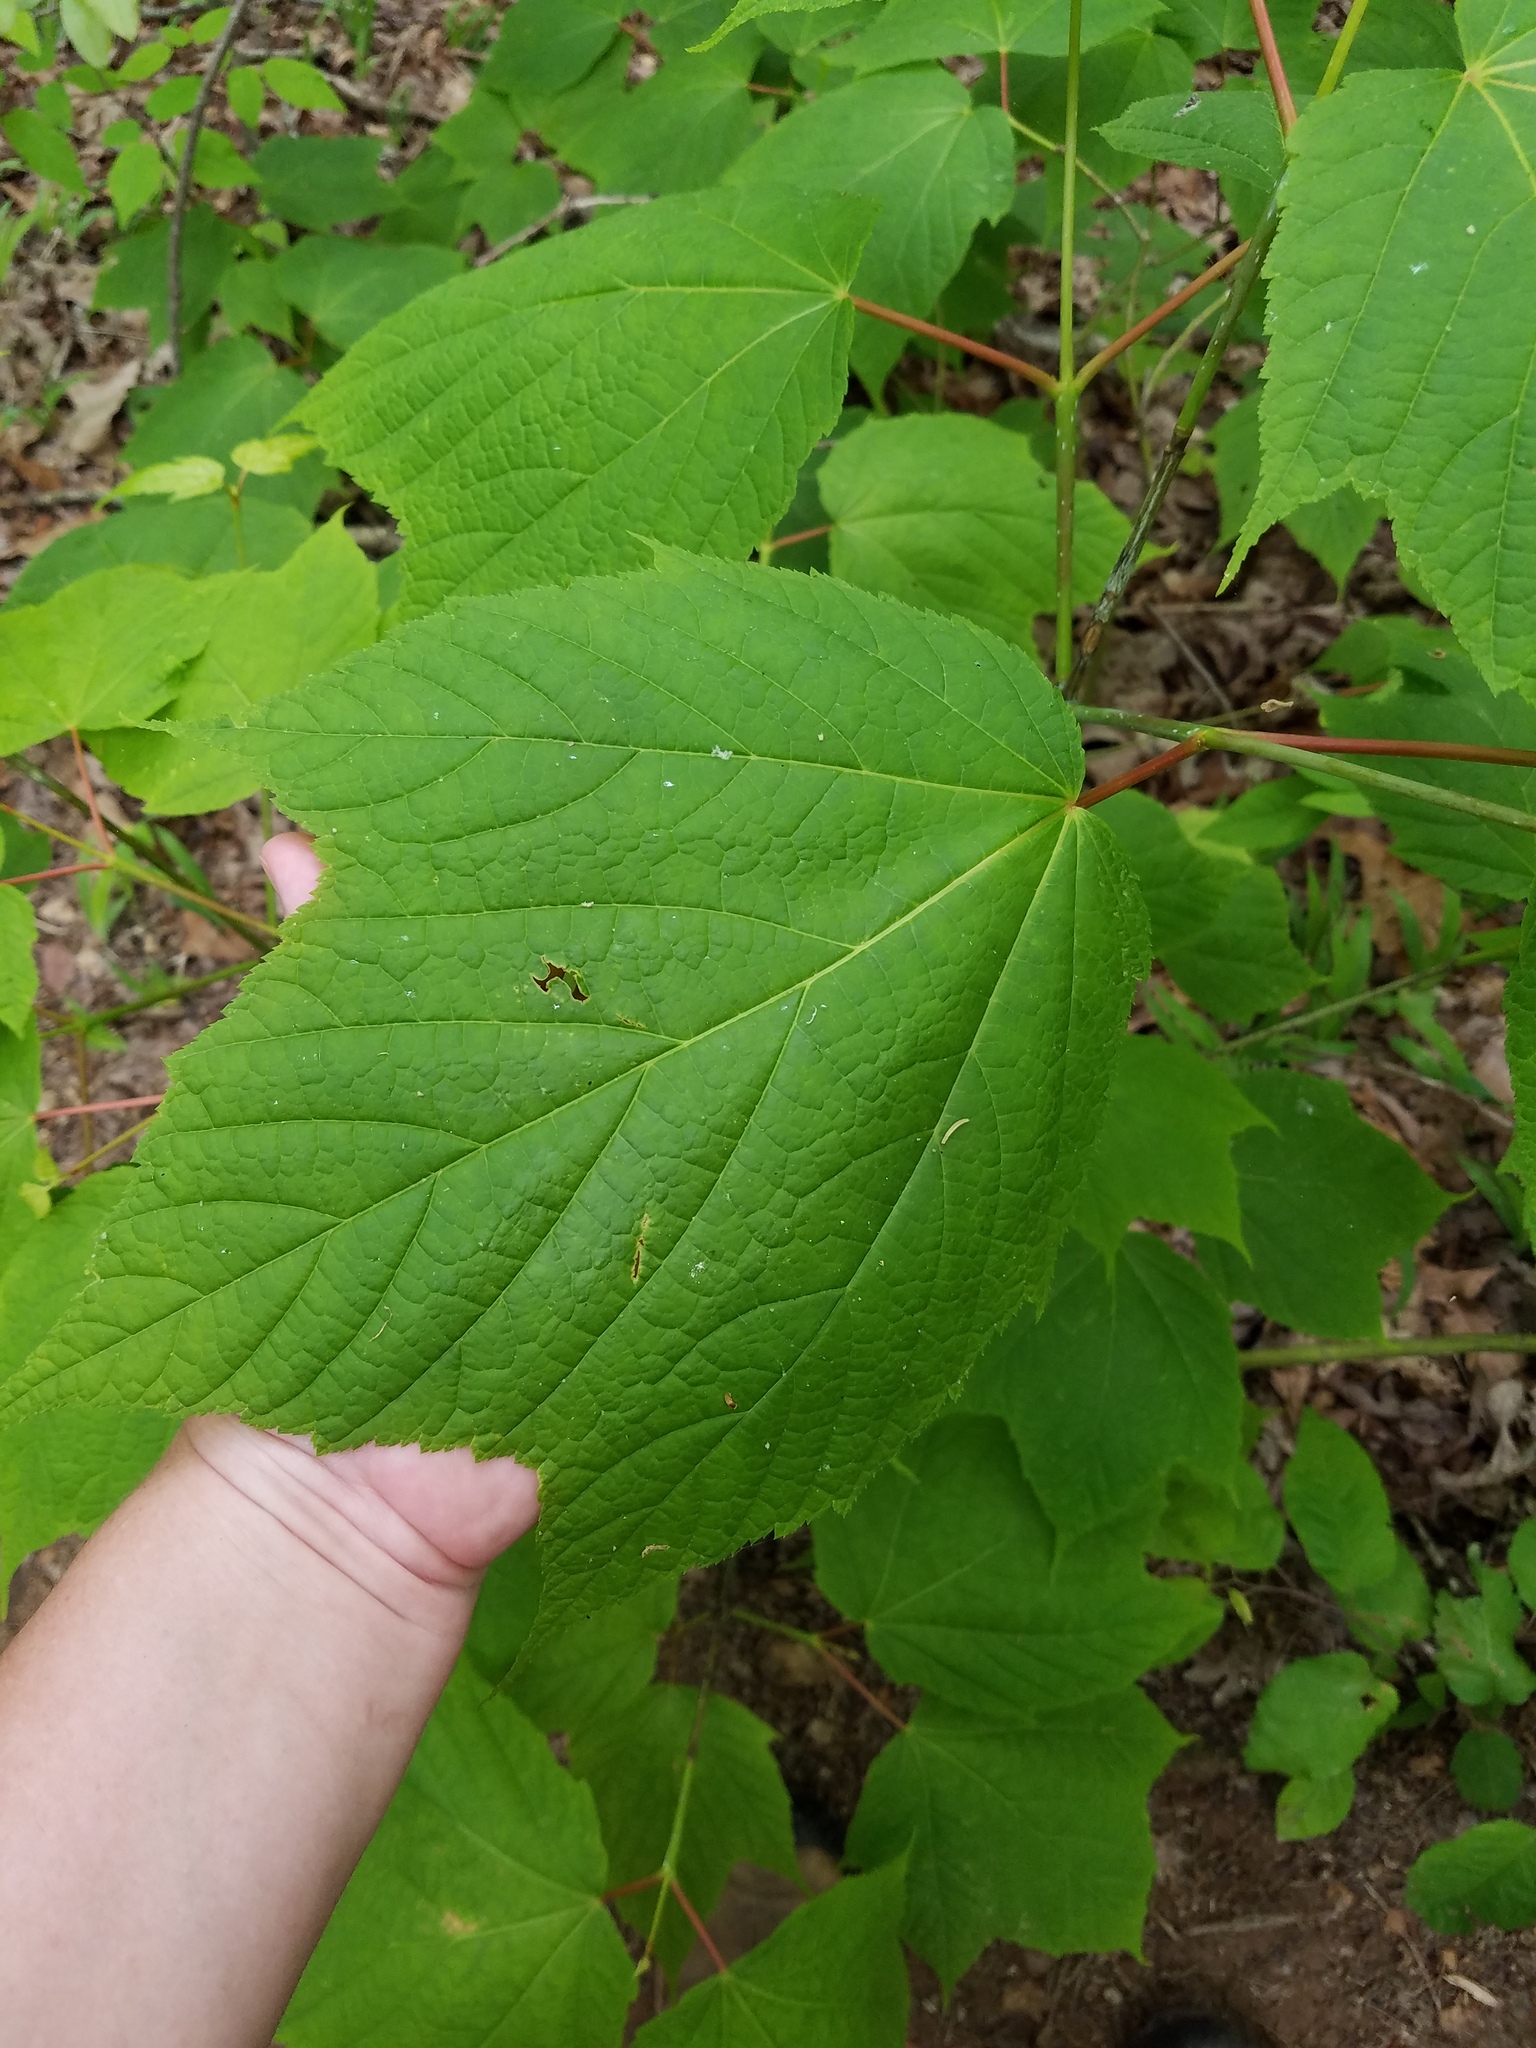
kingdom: Plantae
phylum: Tracheophyta
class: Magnoliopsida
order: Sapindales
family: Sapindaceae
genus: Acer
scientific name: Acer pensylvanicum
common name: Moosewood
